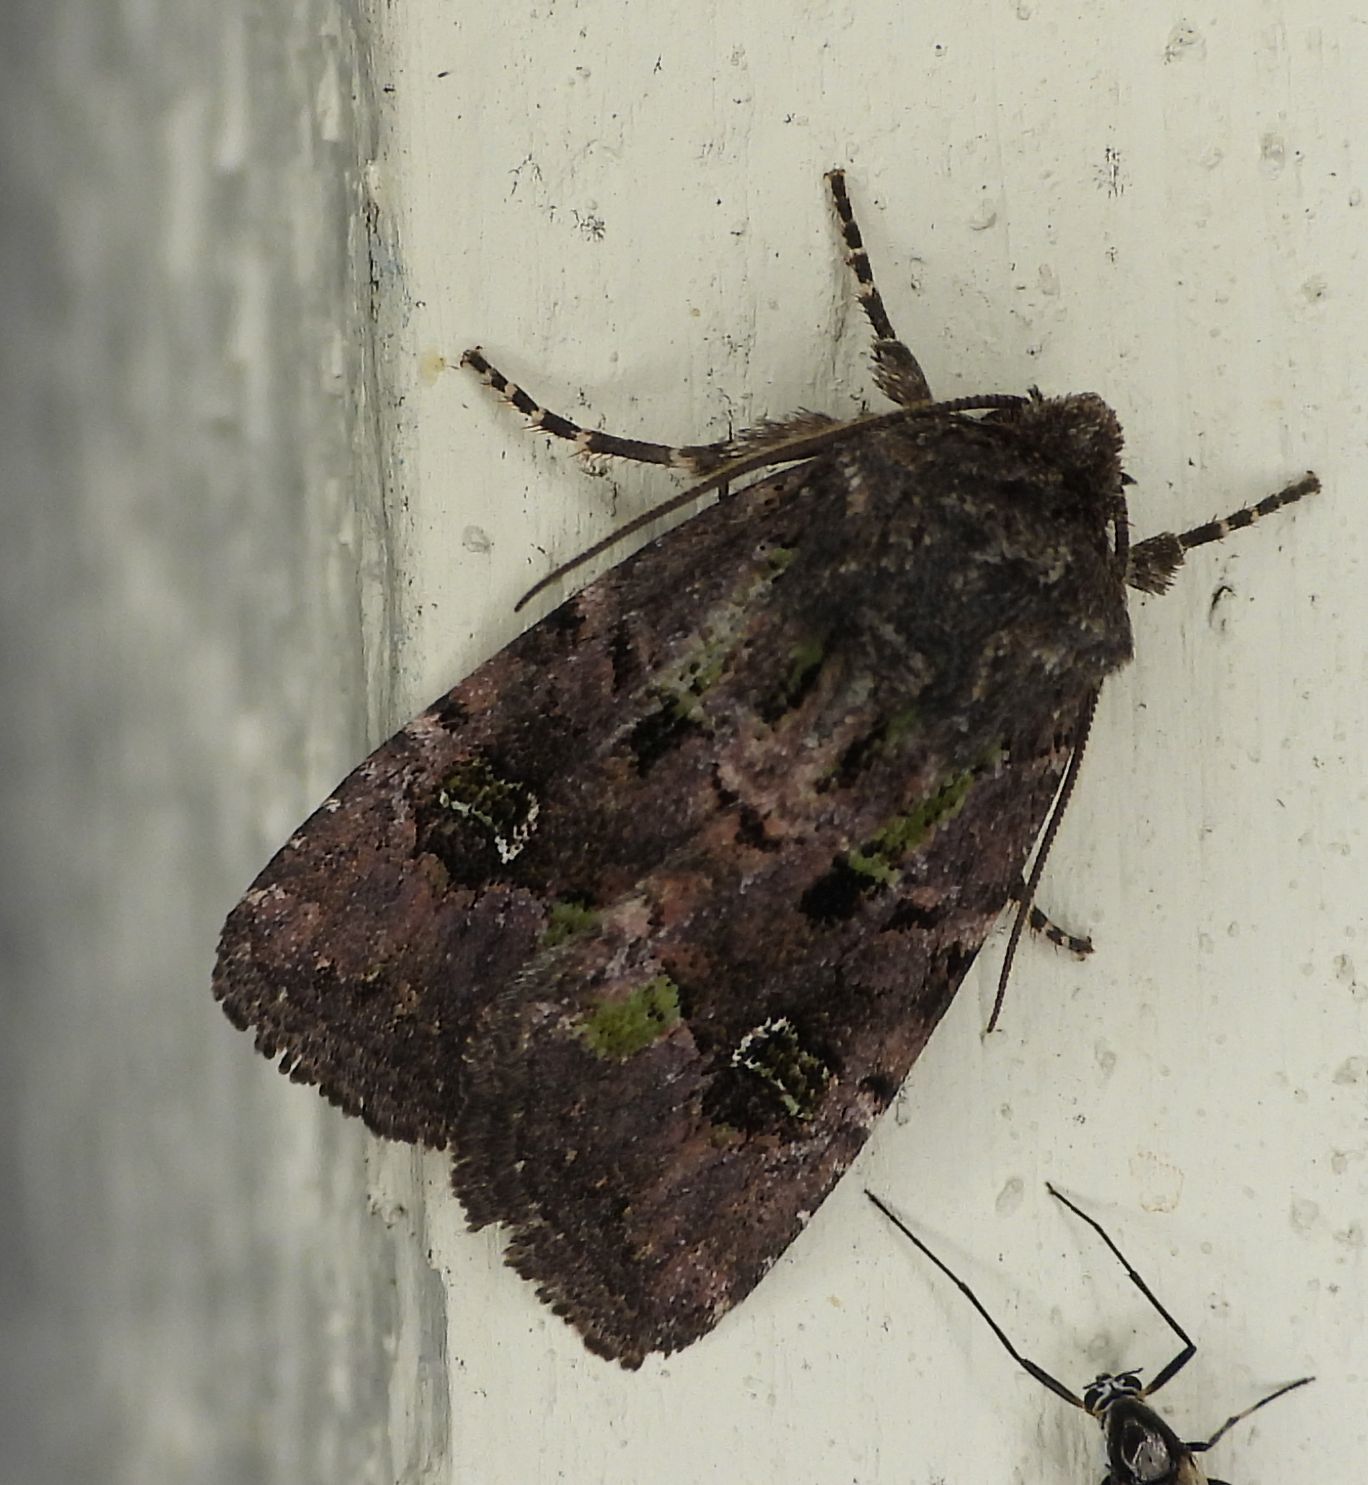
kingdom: Animalia
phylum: Arthropoda
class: Insecta
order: Lepidoptera
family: Noctuidae
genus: Lacinipolia
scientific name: Lacinipolia renigera
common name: Kidney-spotted minor
